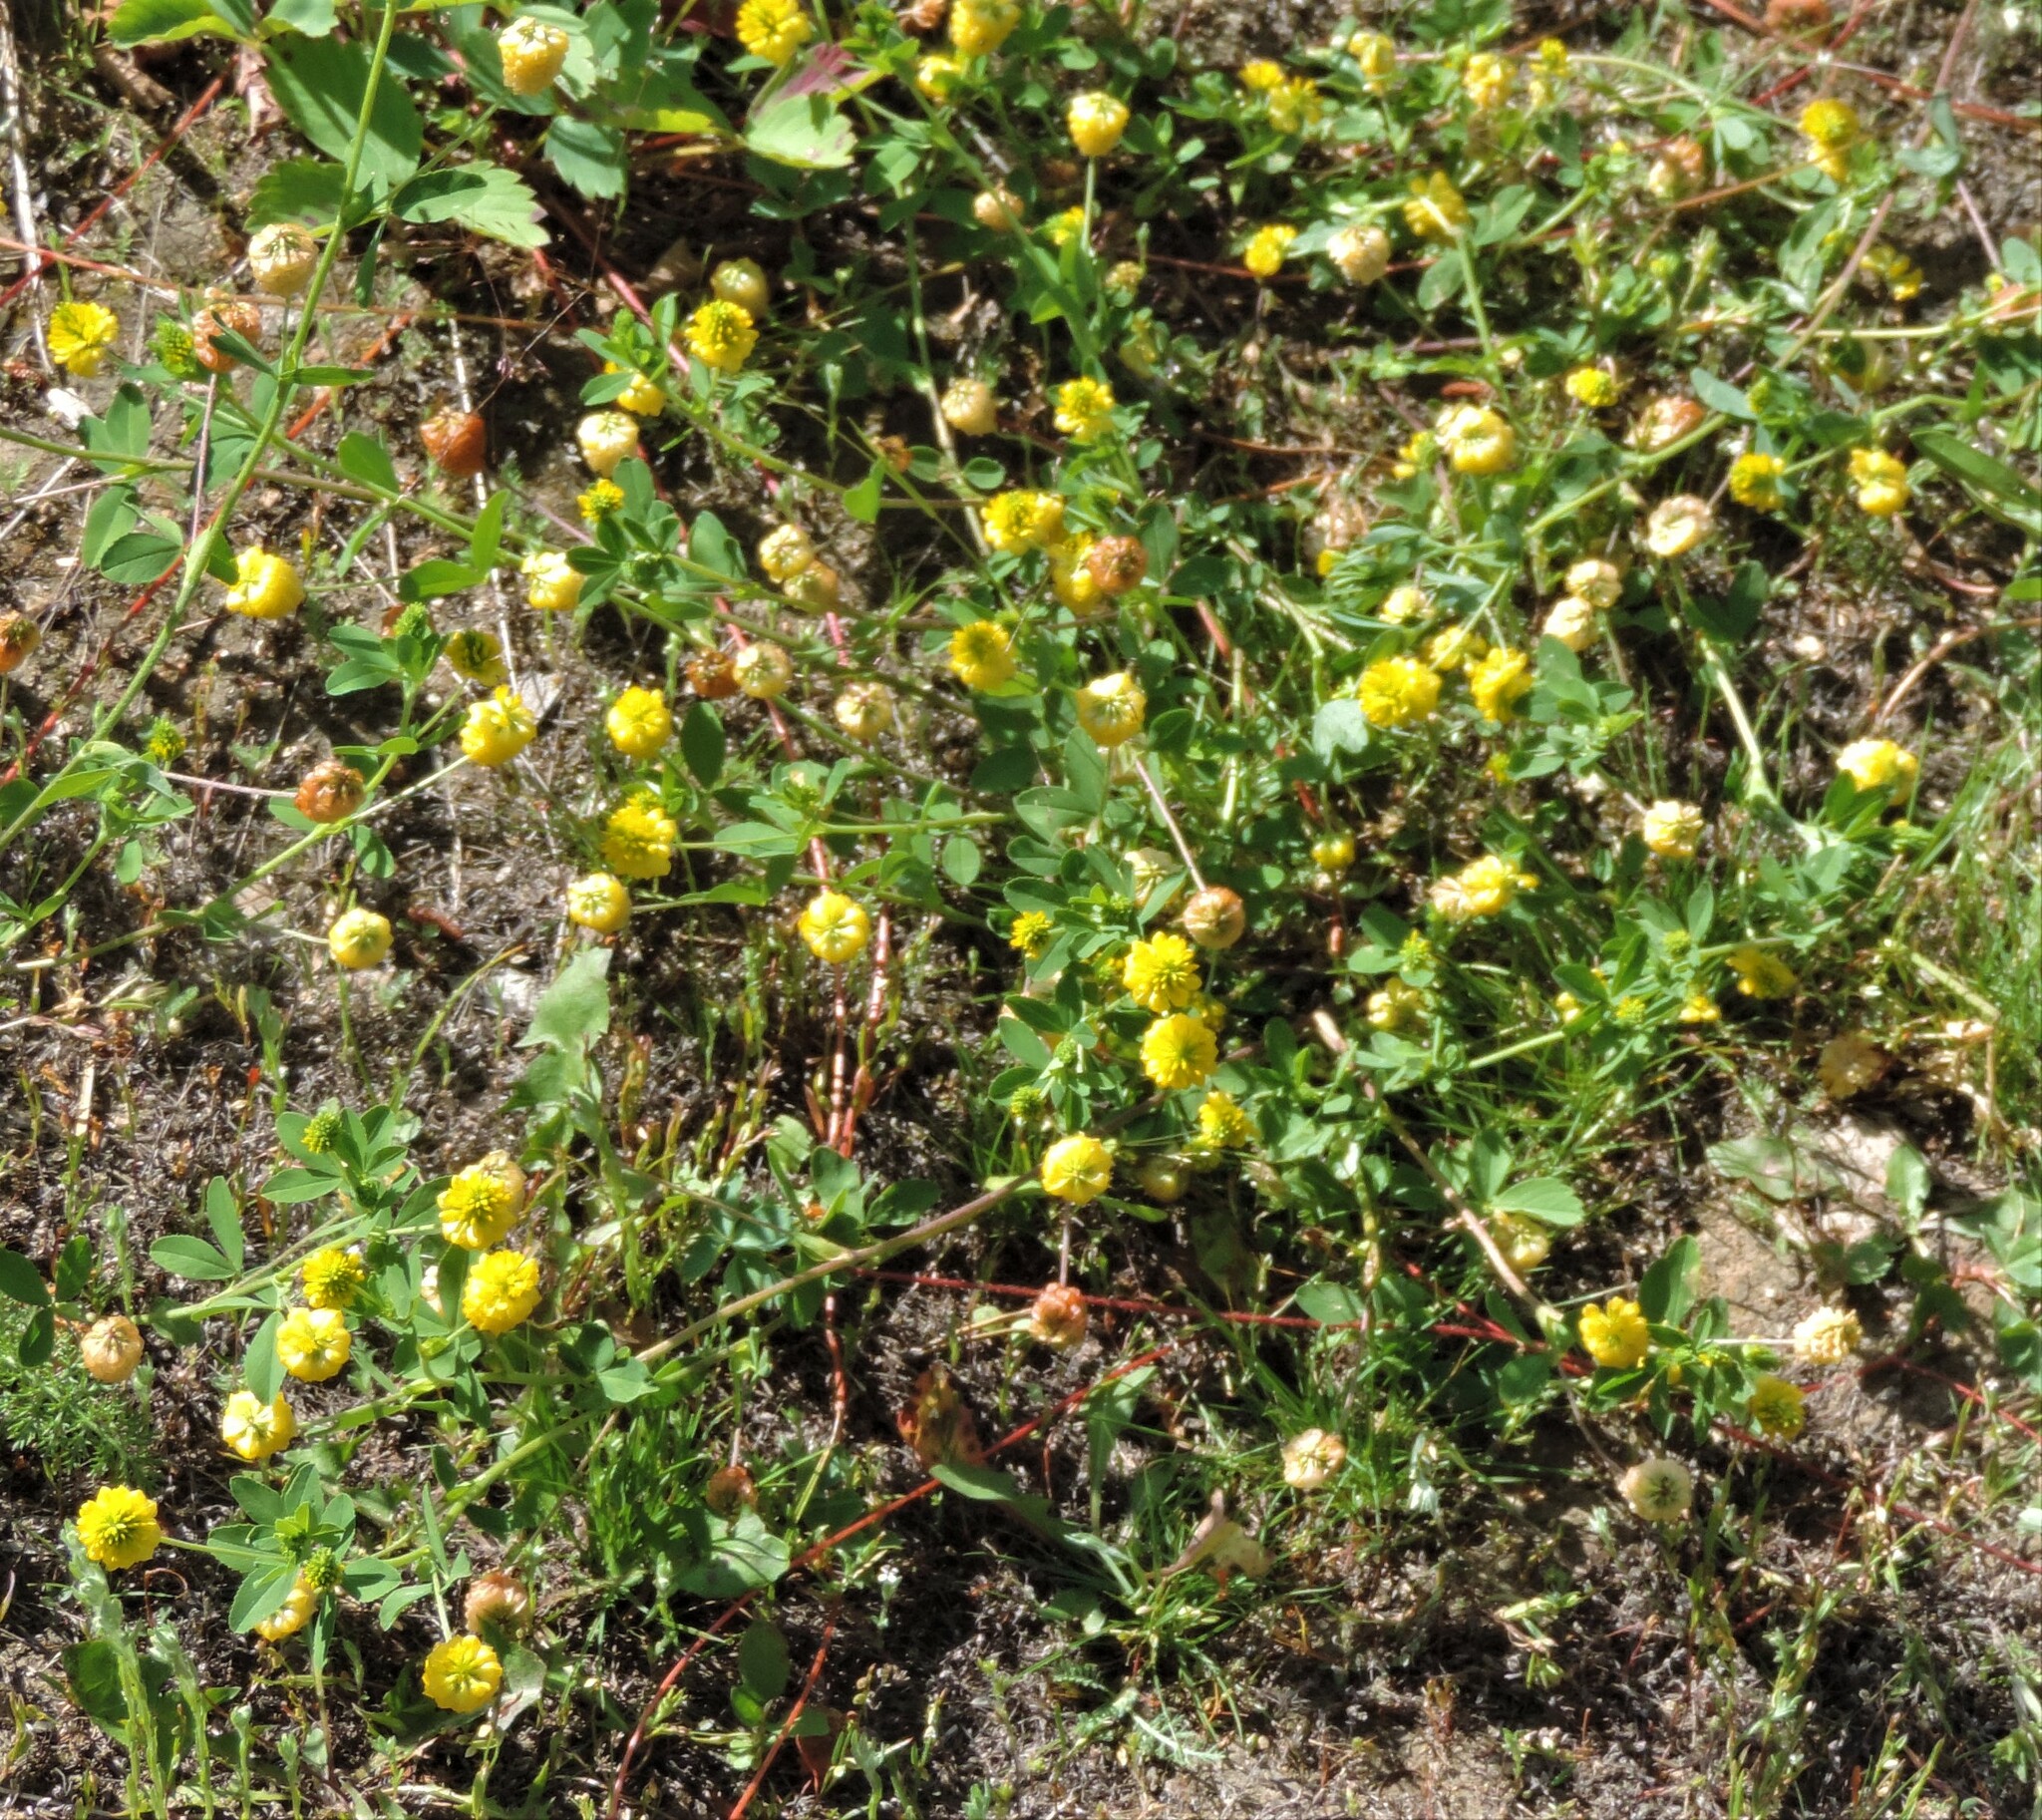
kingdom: Plantae
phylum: Tracheophyta
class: Magnoliopsida
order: Fabales
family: Fabaceae
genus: Trifolium
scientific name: Trifolium aureum
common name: Golden clover
